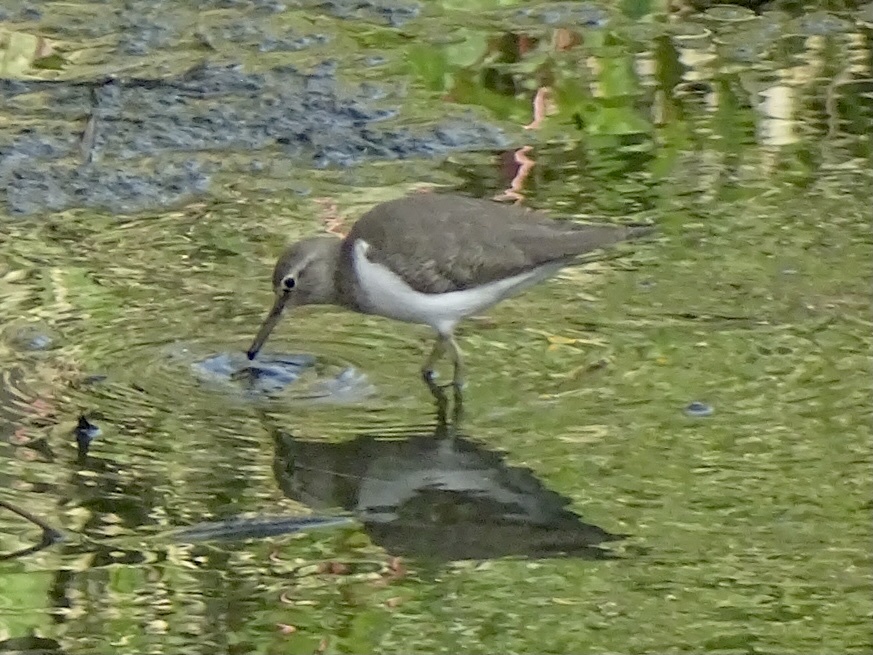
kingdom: Animalia
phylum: Chordata
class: Aves
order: Charadriiformes
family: Scolopacidae
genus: Actitis
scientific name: Actitis hypoleucos
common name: Common sandpiper
